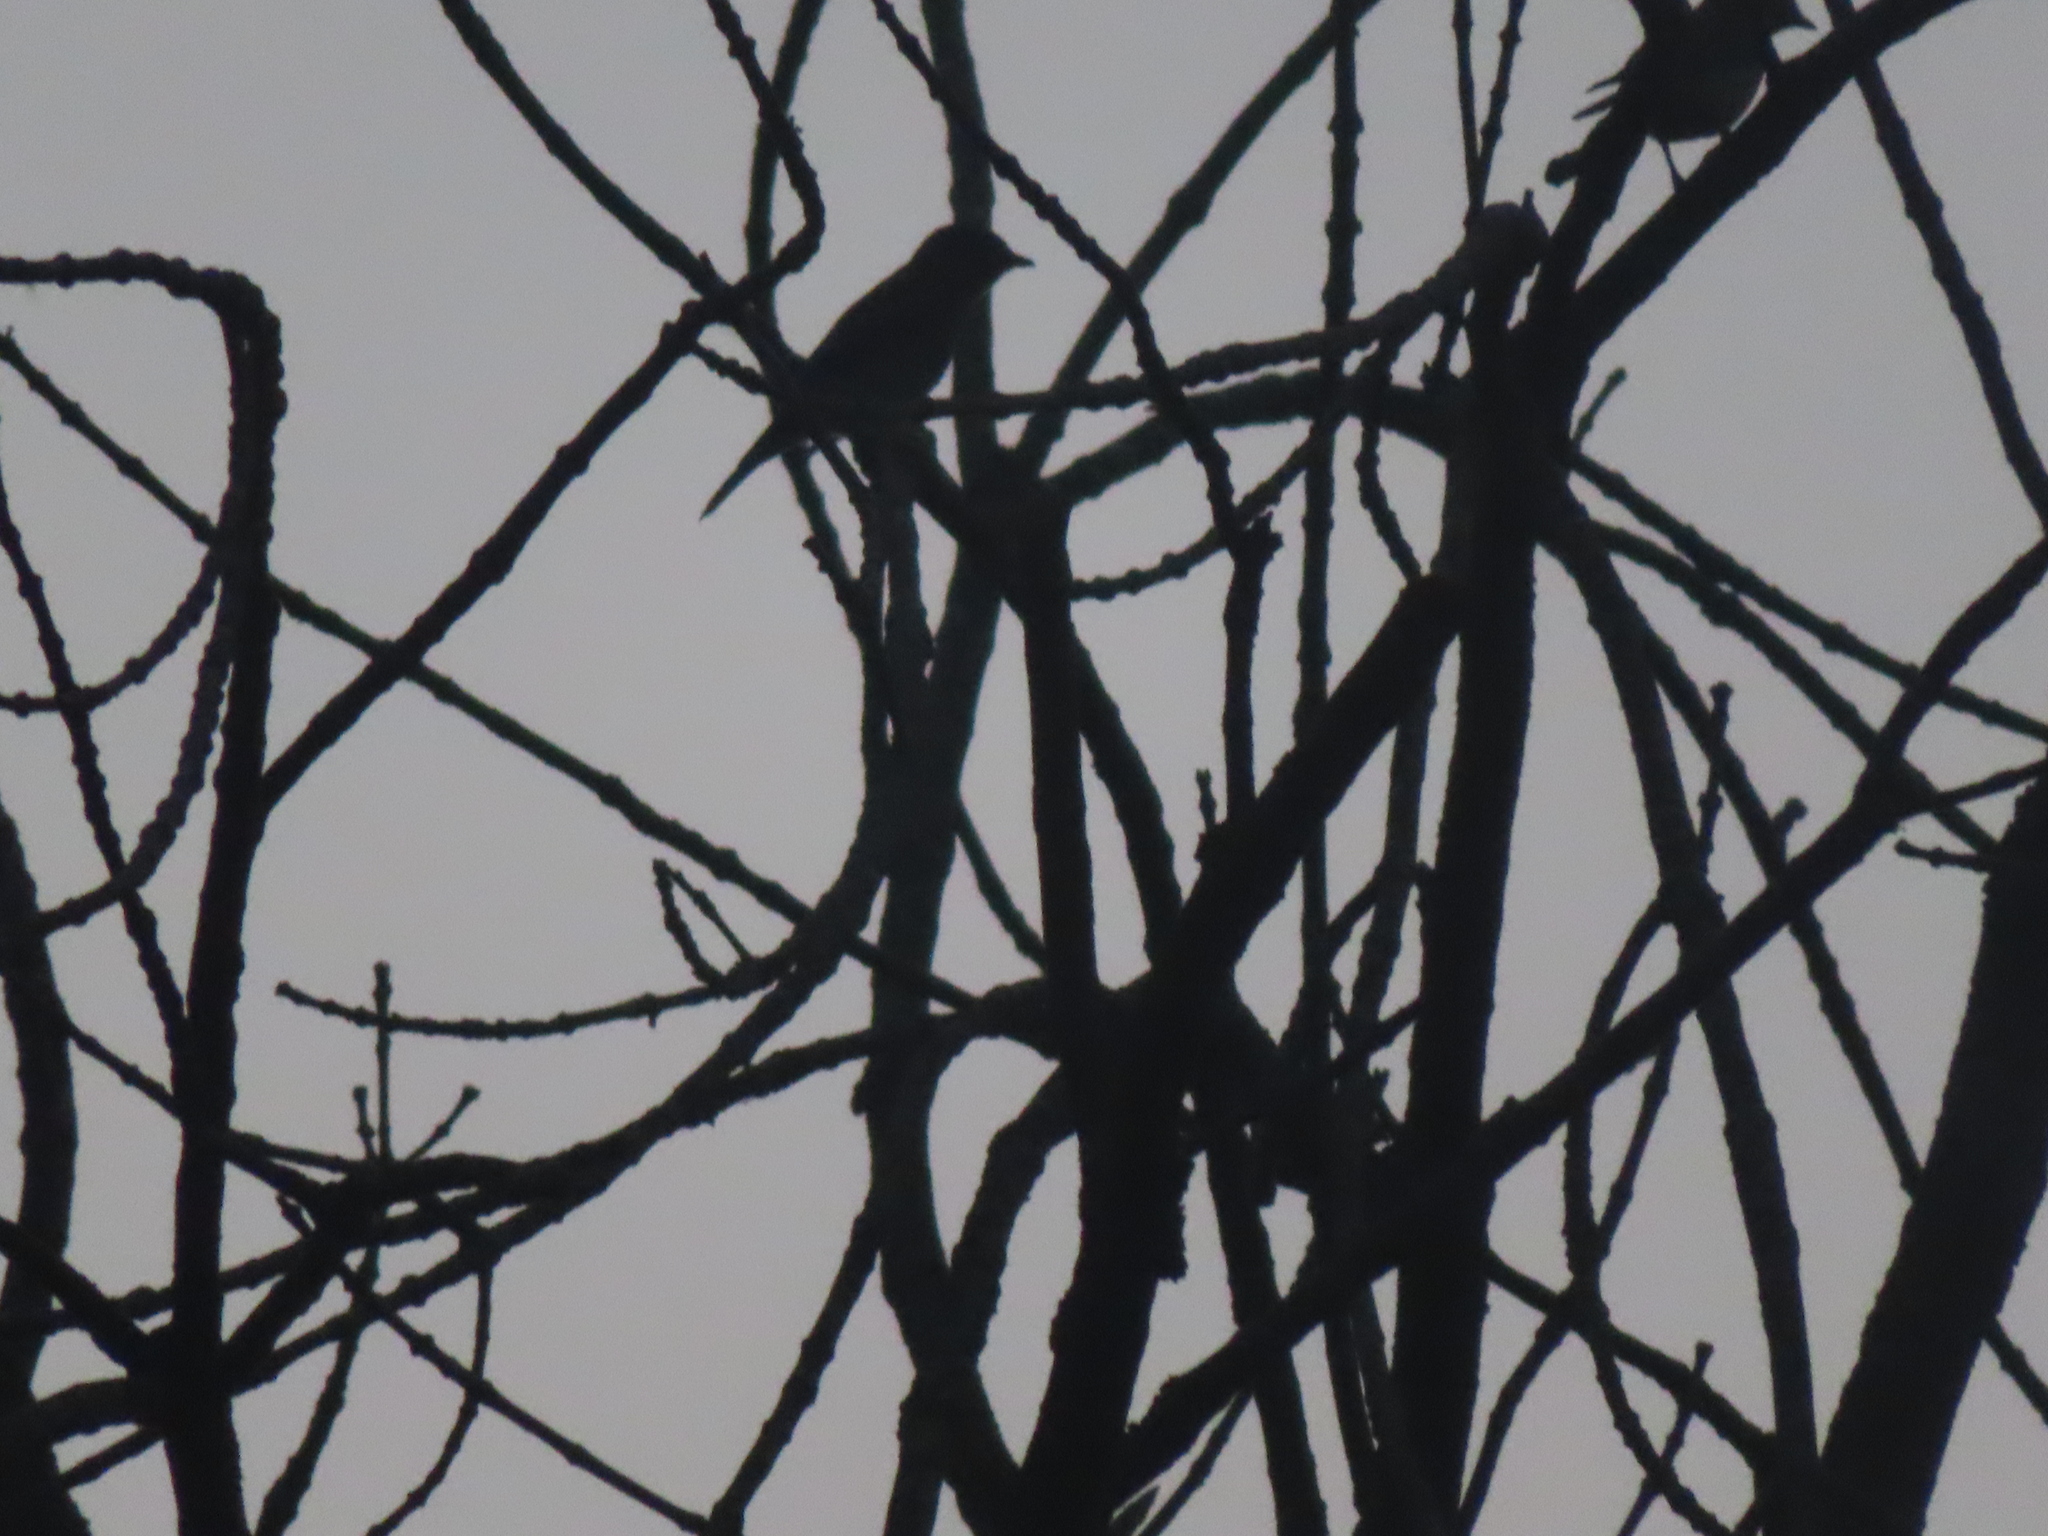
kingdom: Animalia
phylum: Chordata
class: Aves
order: Passeriformes
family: Turdidae
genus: Sialia
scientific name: Sialia sialis
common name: Eastern bluebird
